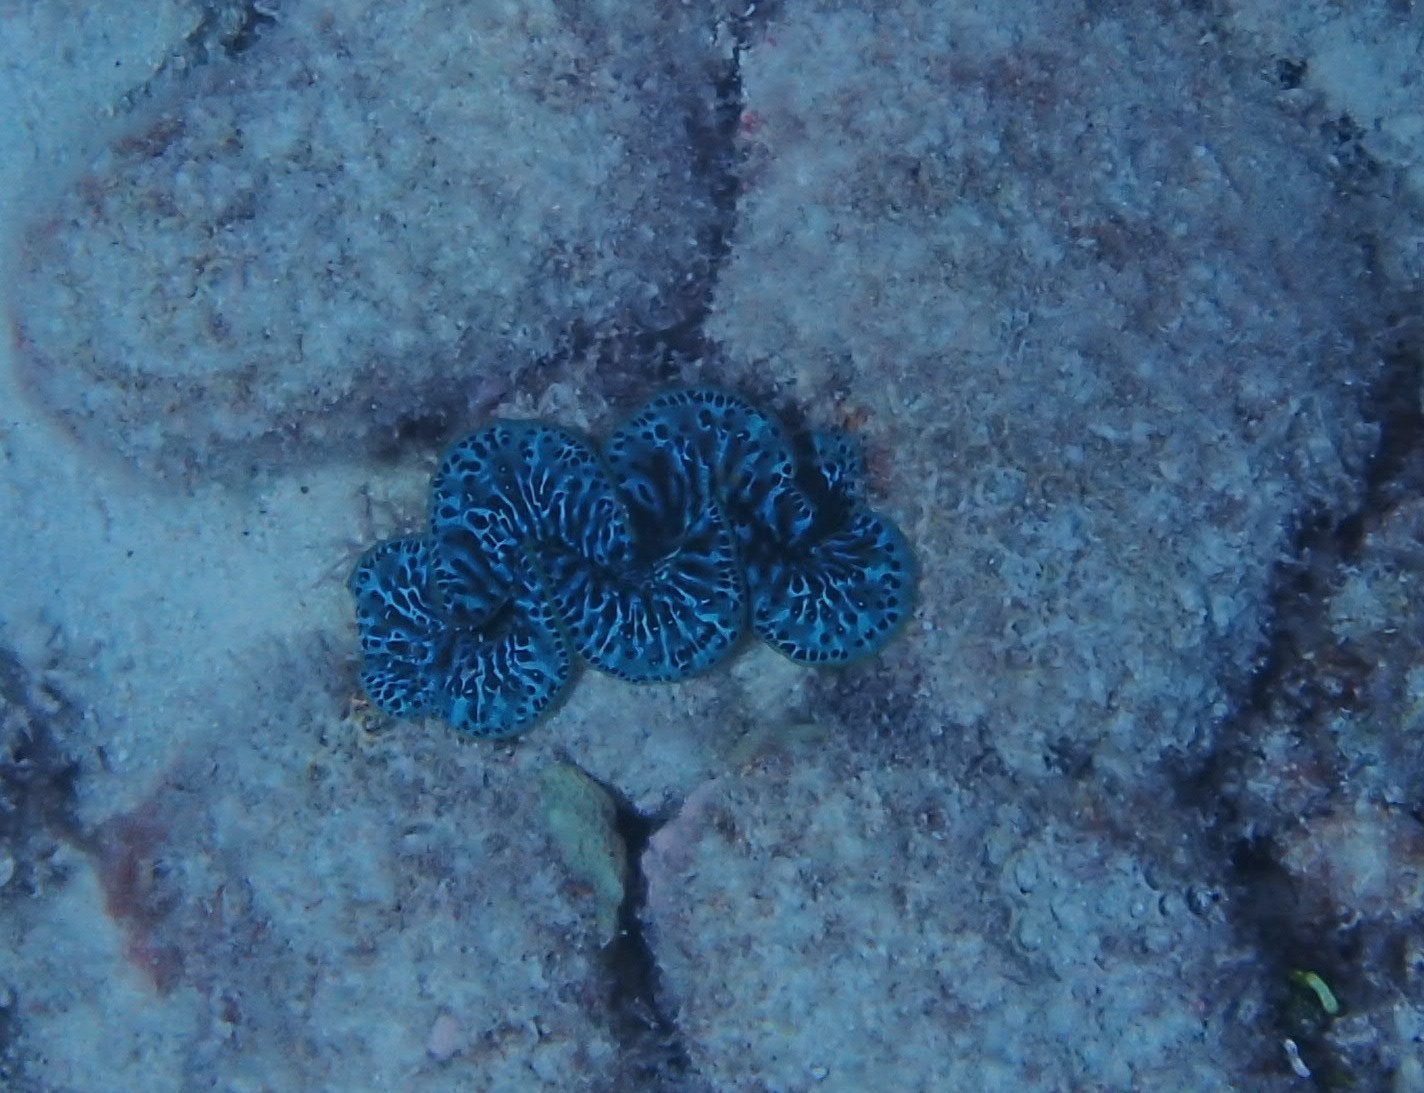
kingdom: Animalia
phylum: Mollusca
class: Bivalvia
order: Cardiida
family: Cardiidae
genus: Tridacna
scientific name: Tridacna maxima
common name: Small giant clam
